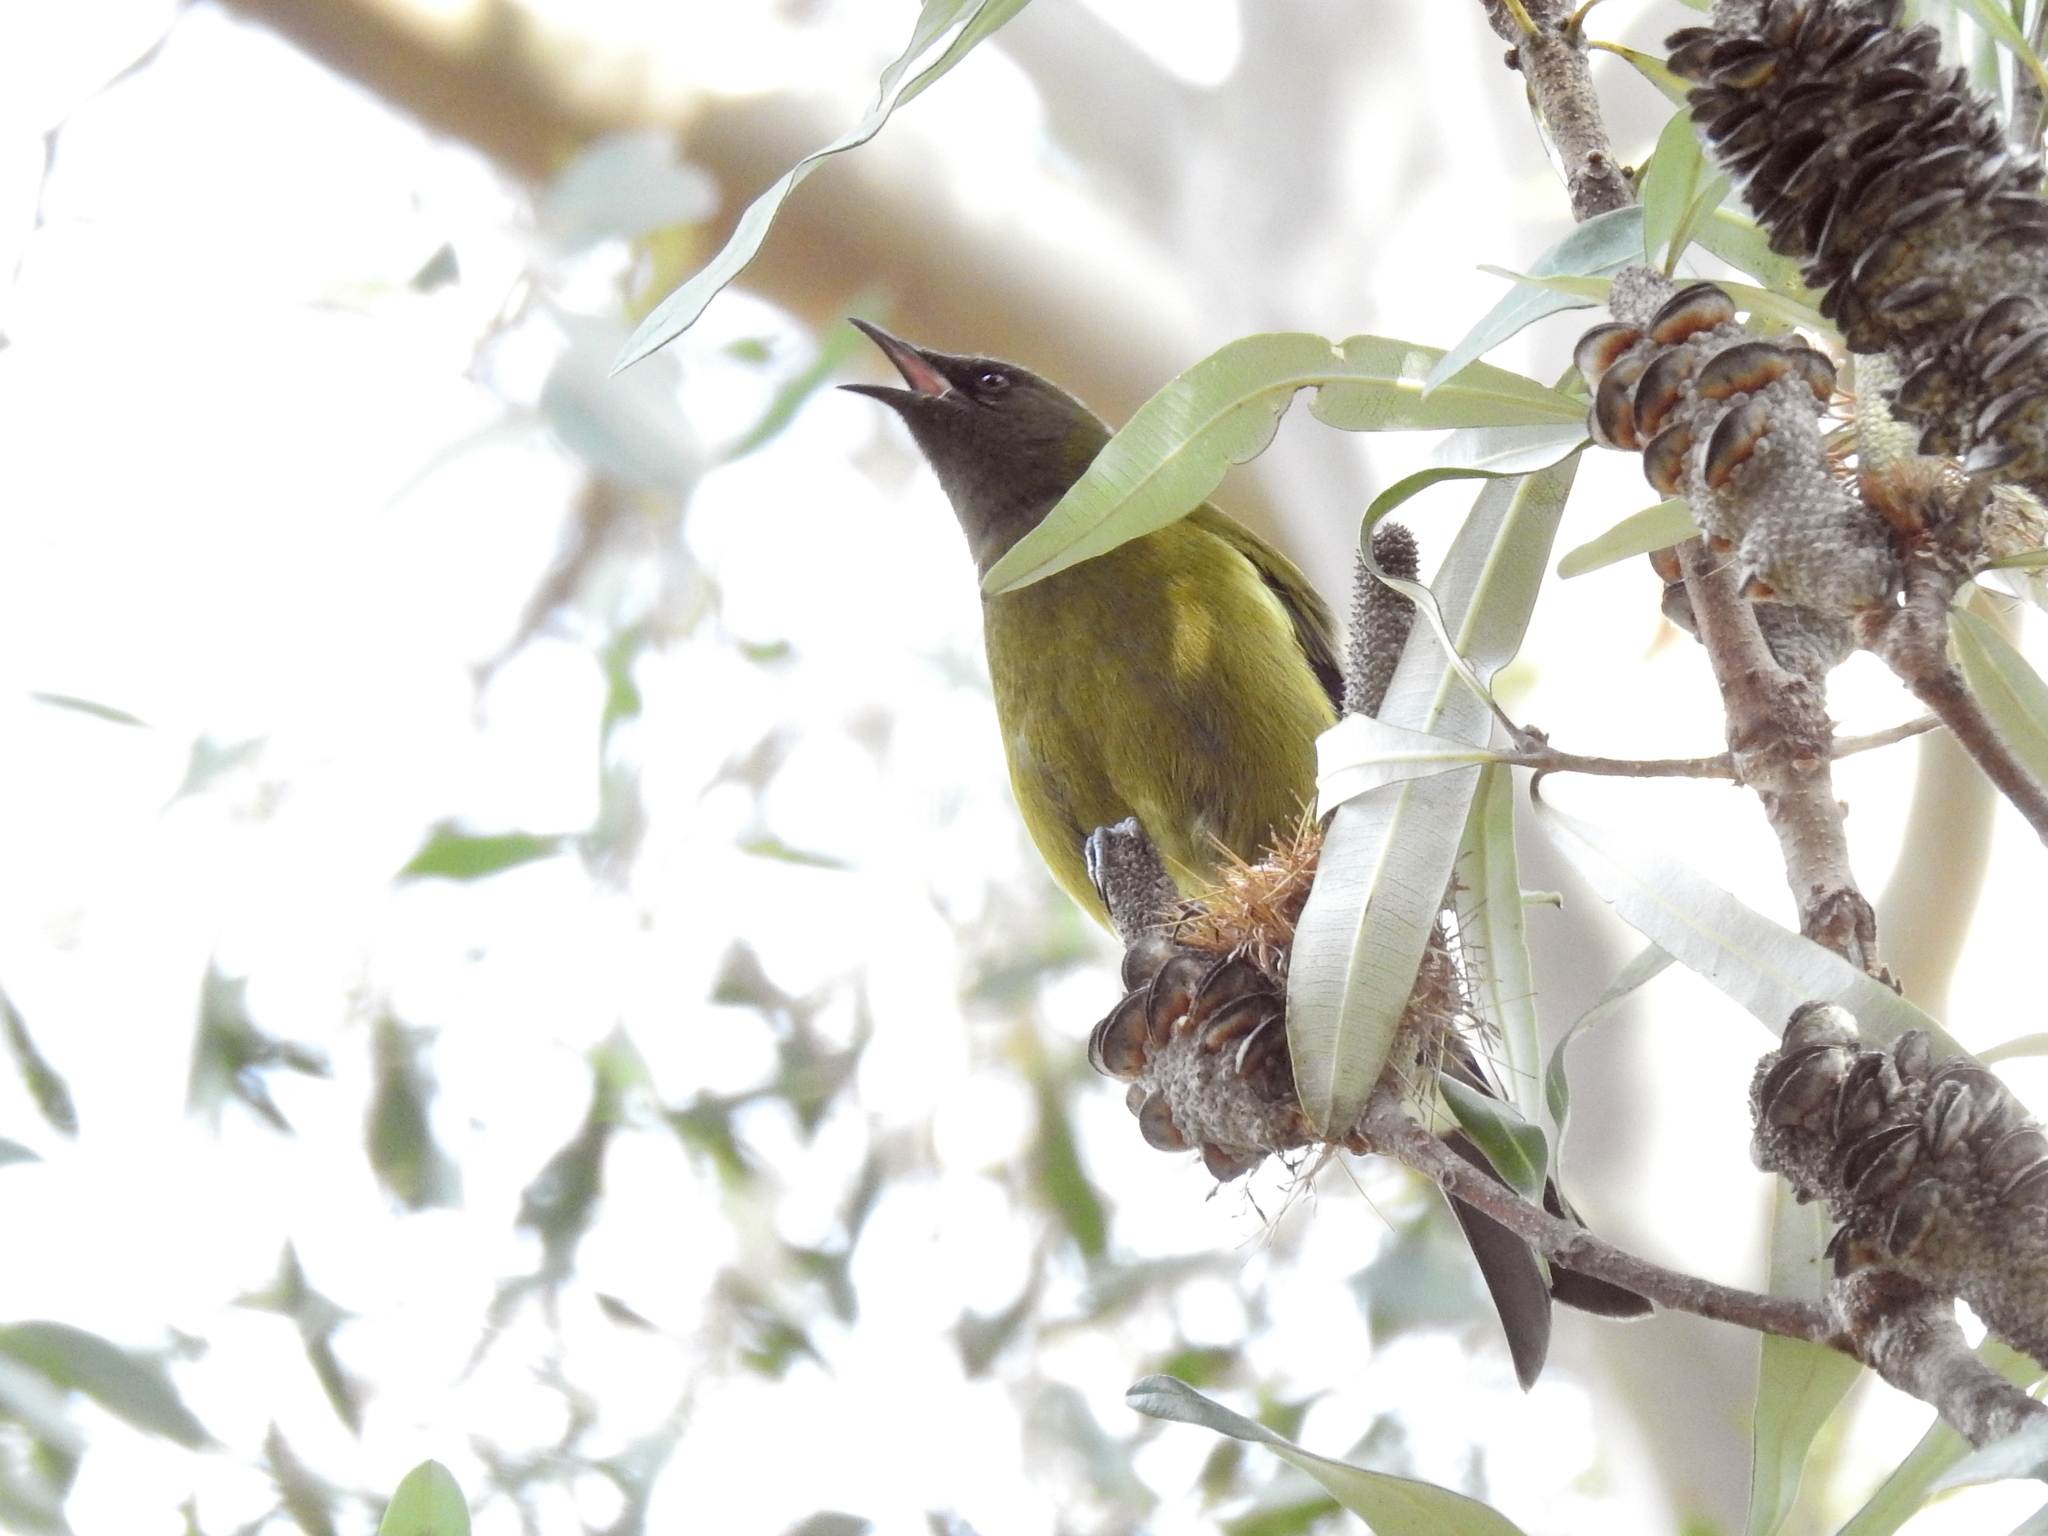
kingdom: Animalia
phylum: Chordata
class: Aves
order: Passeriformes
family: Meliphagidae
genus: Anthornis
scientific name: Anthornis melanura
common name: New zealand bellbird
